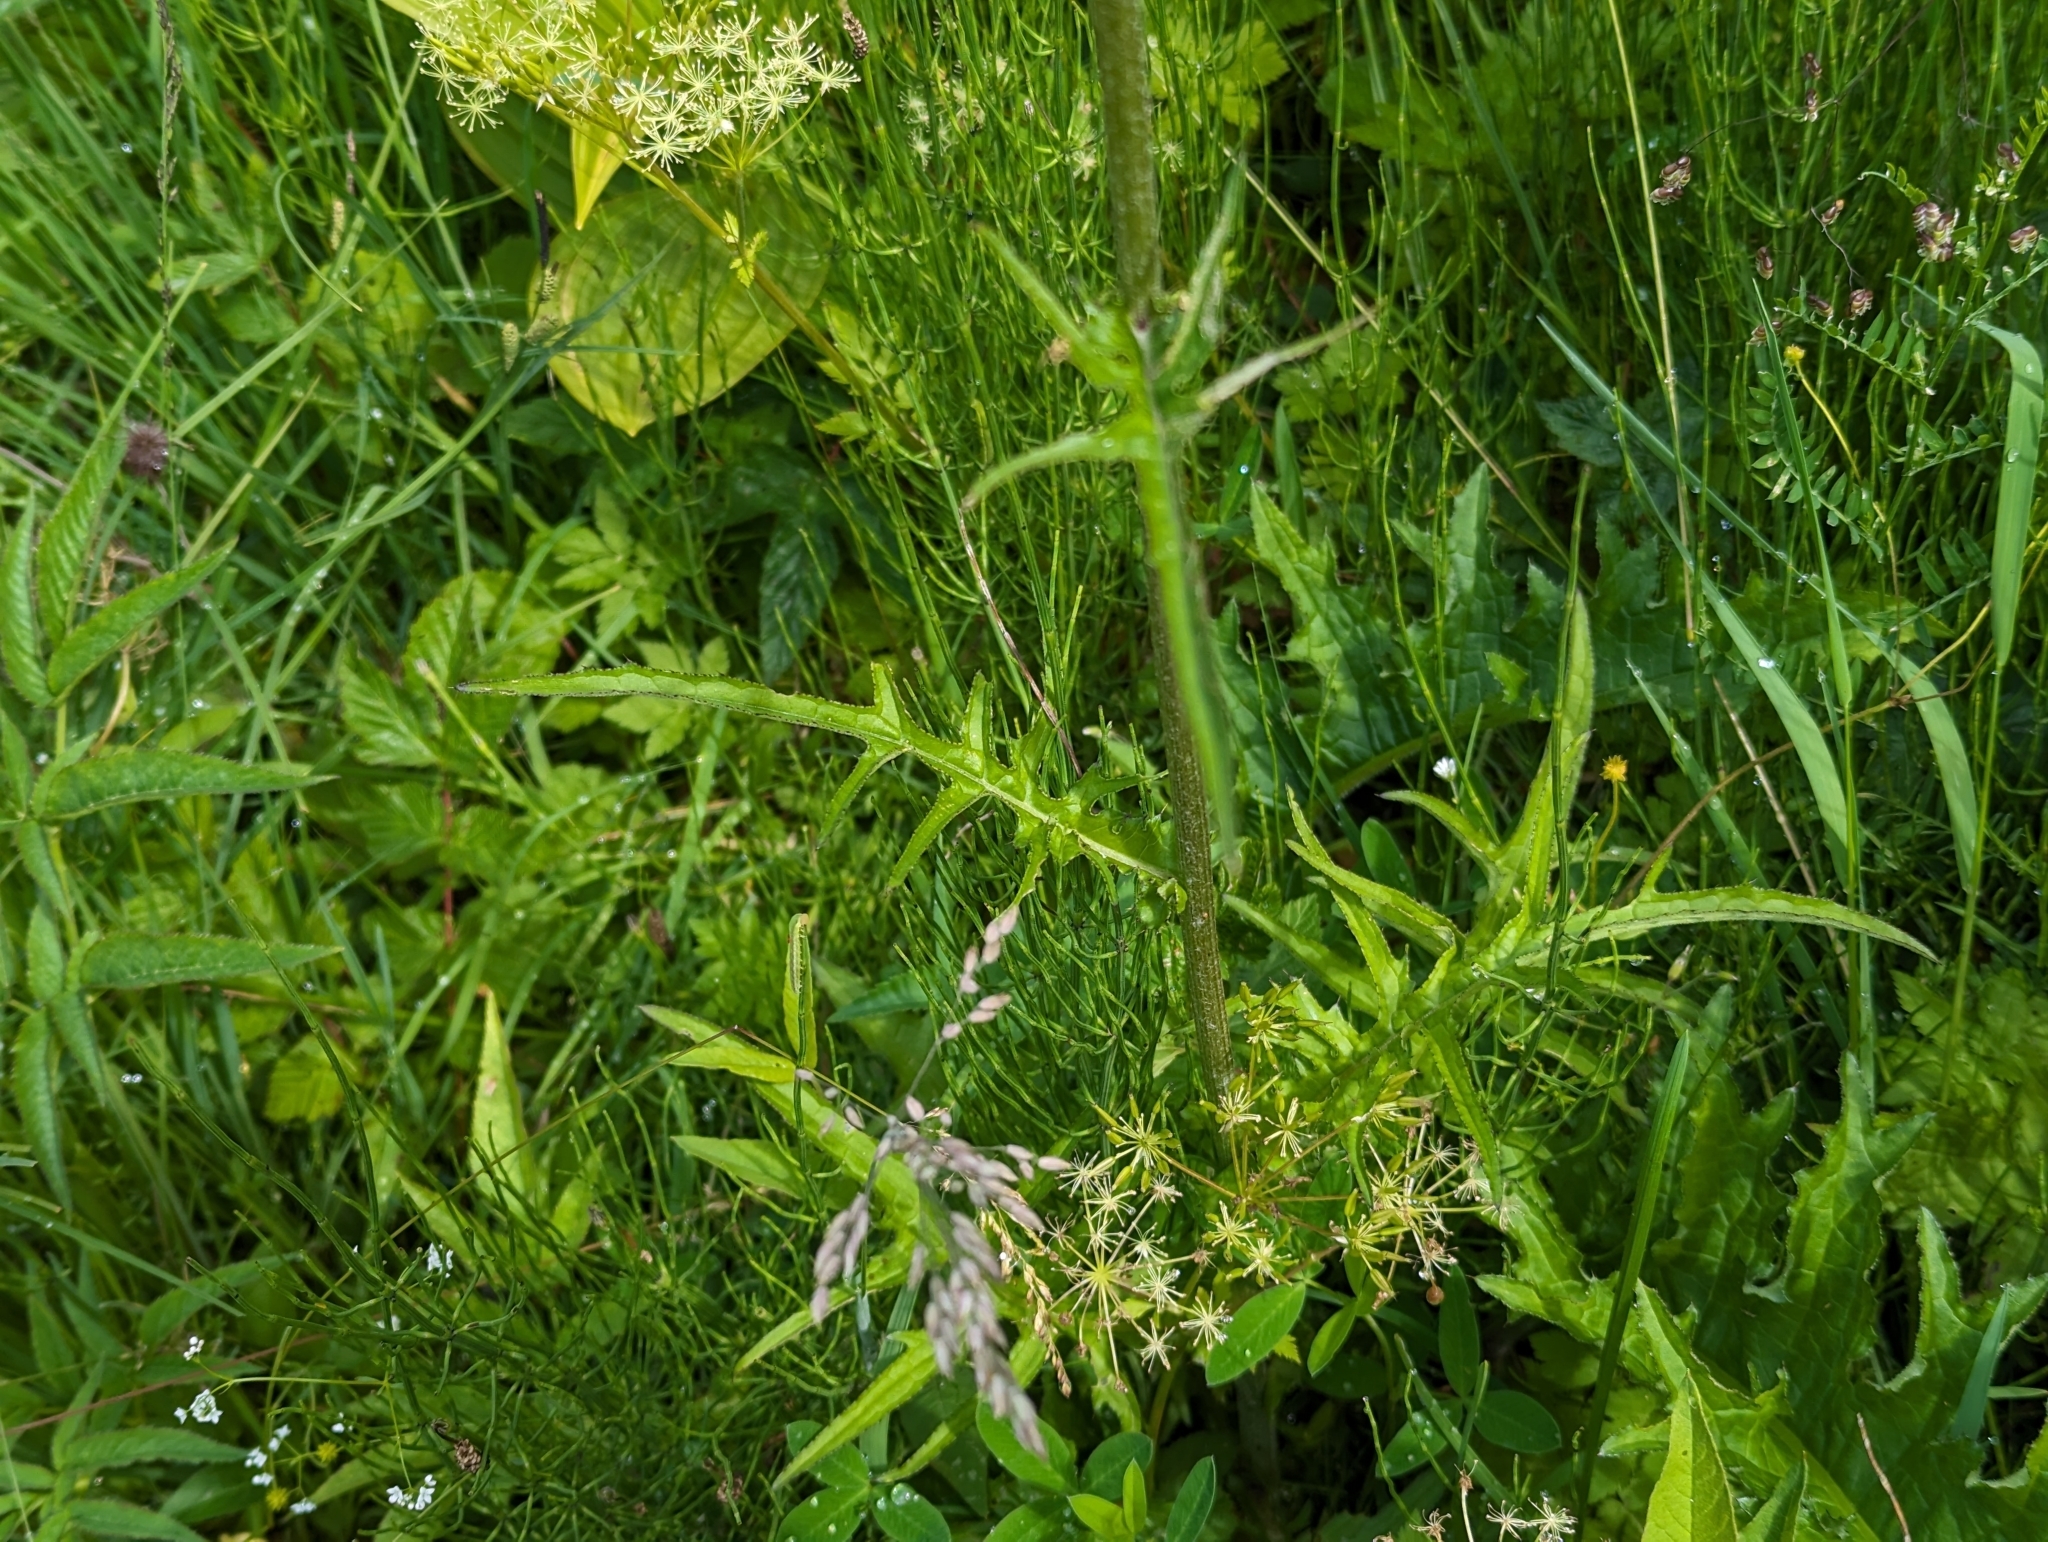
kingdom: Plantae
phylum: Tracheophyta
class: Magnoliopsida
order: Asterales
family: Asteraceae
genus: Cirsium
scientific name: Cirsium rivulare
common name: Brook thistle
